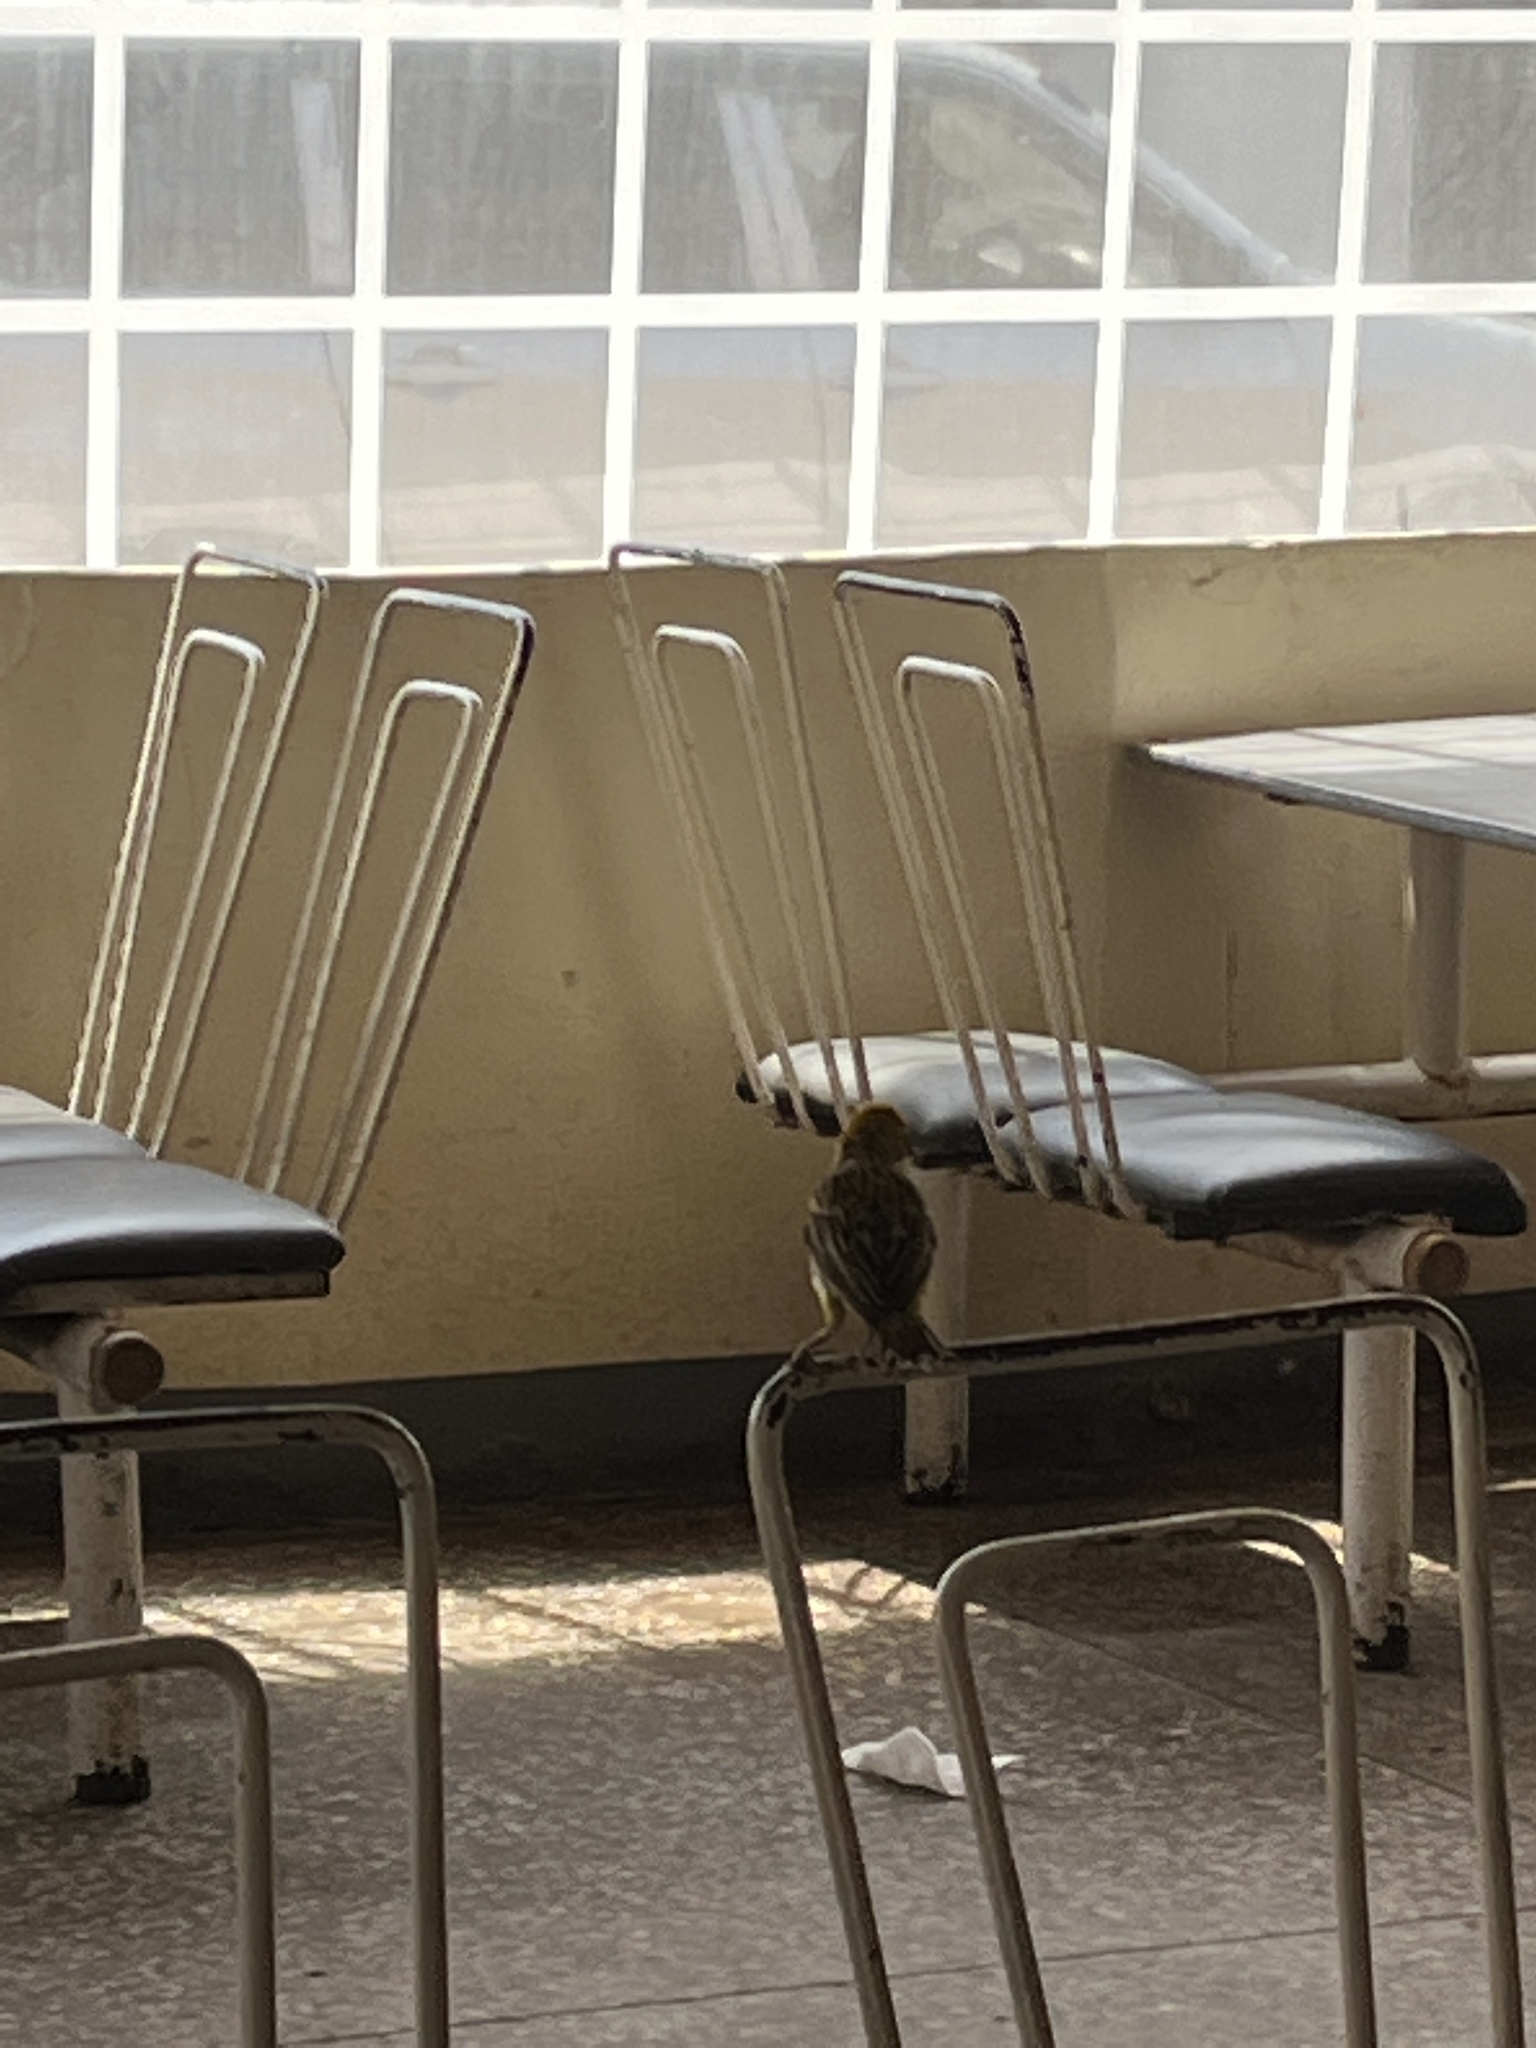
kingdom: Animalia
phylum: Chordata
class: Aves
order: Passeriformes
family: Ploceidae
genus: Ploceus
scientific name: Ploceus spekei
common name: Speke's weaver
